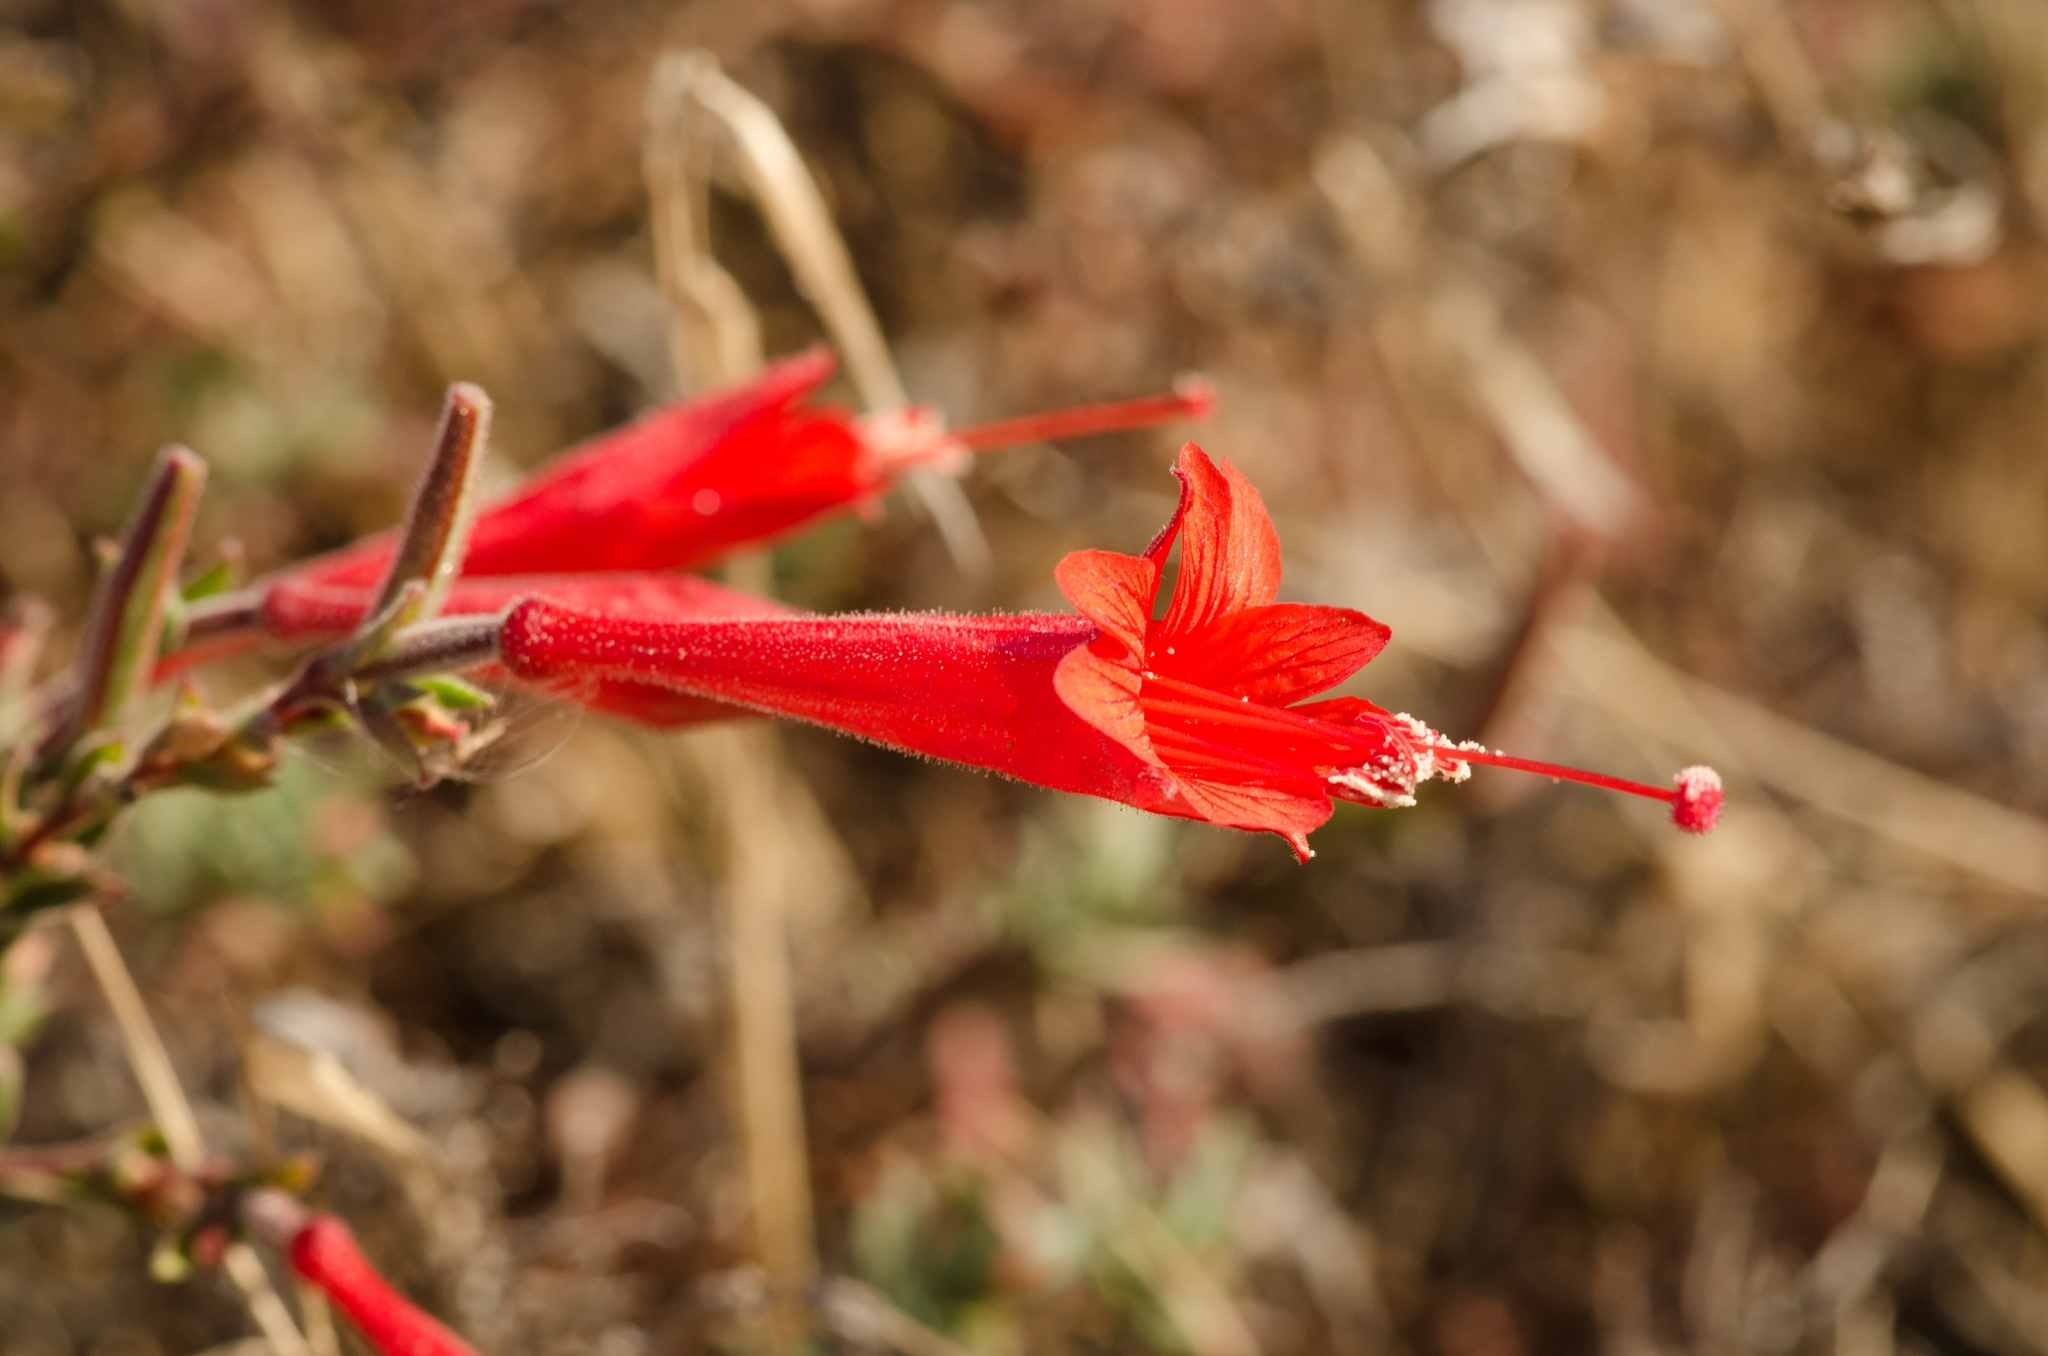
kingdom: Plantae
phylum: Tracheophyta
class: Magnoliopsida
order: Myrtales
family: Onagraceae
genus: Epilobium
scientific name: Epilobium canum
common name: California-fuchsia
